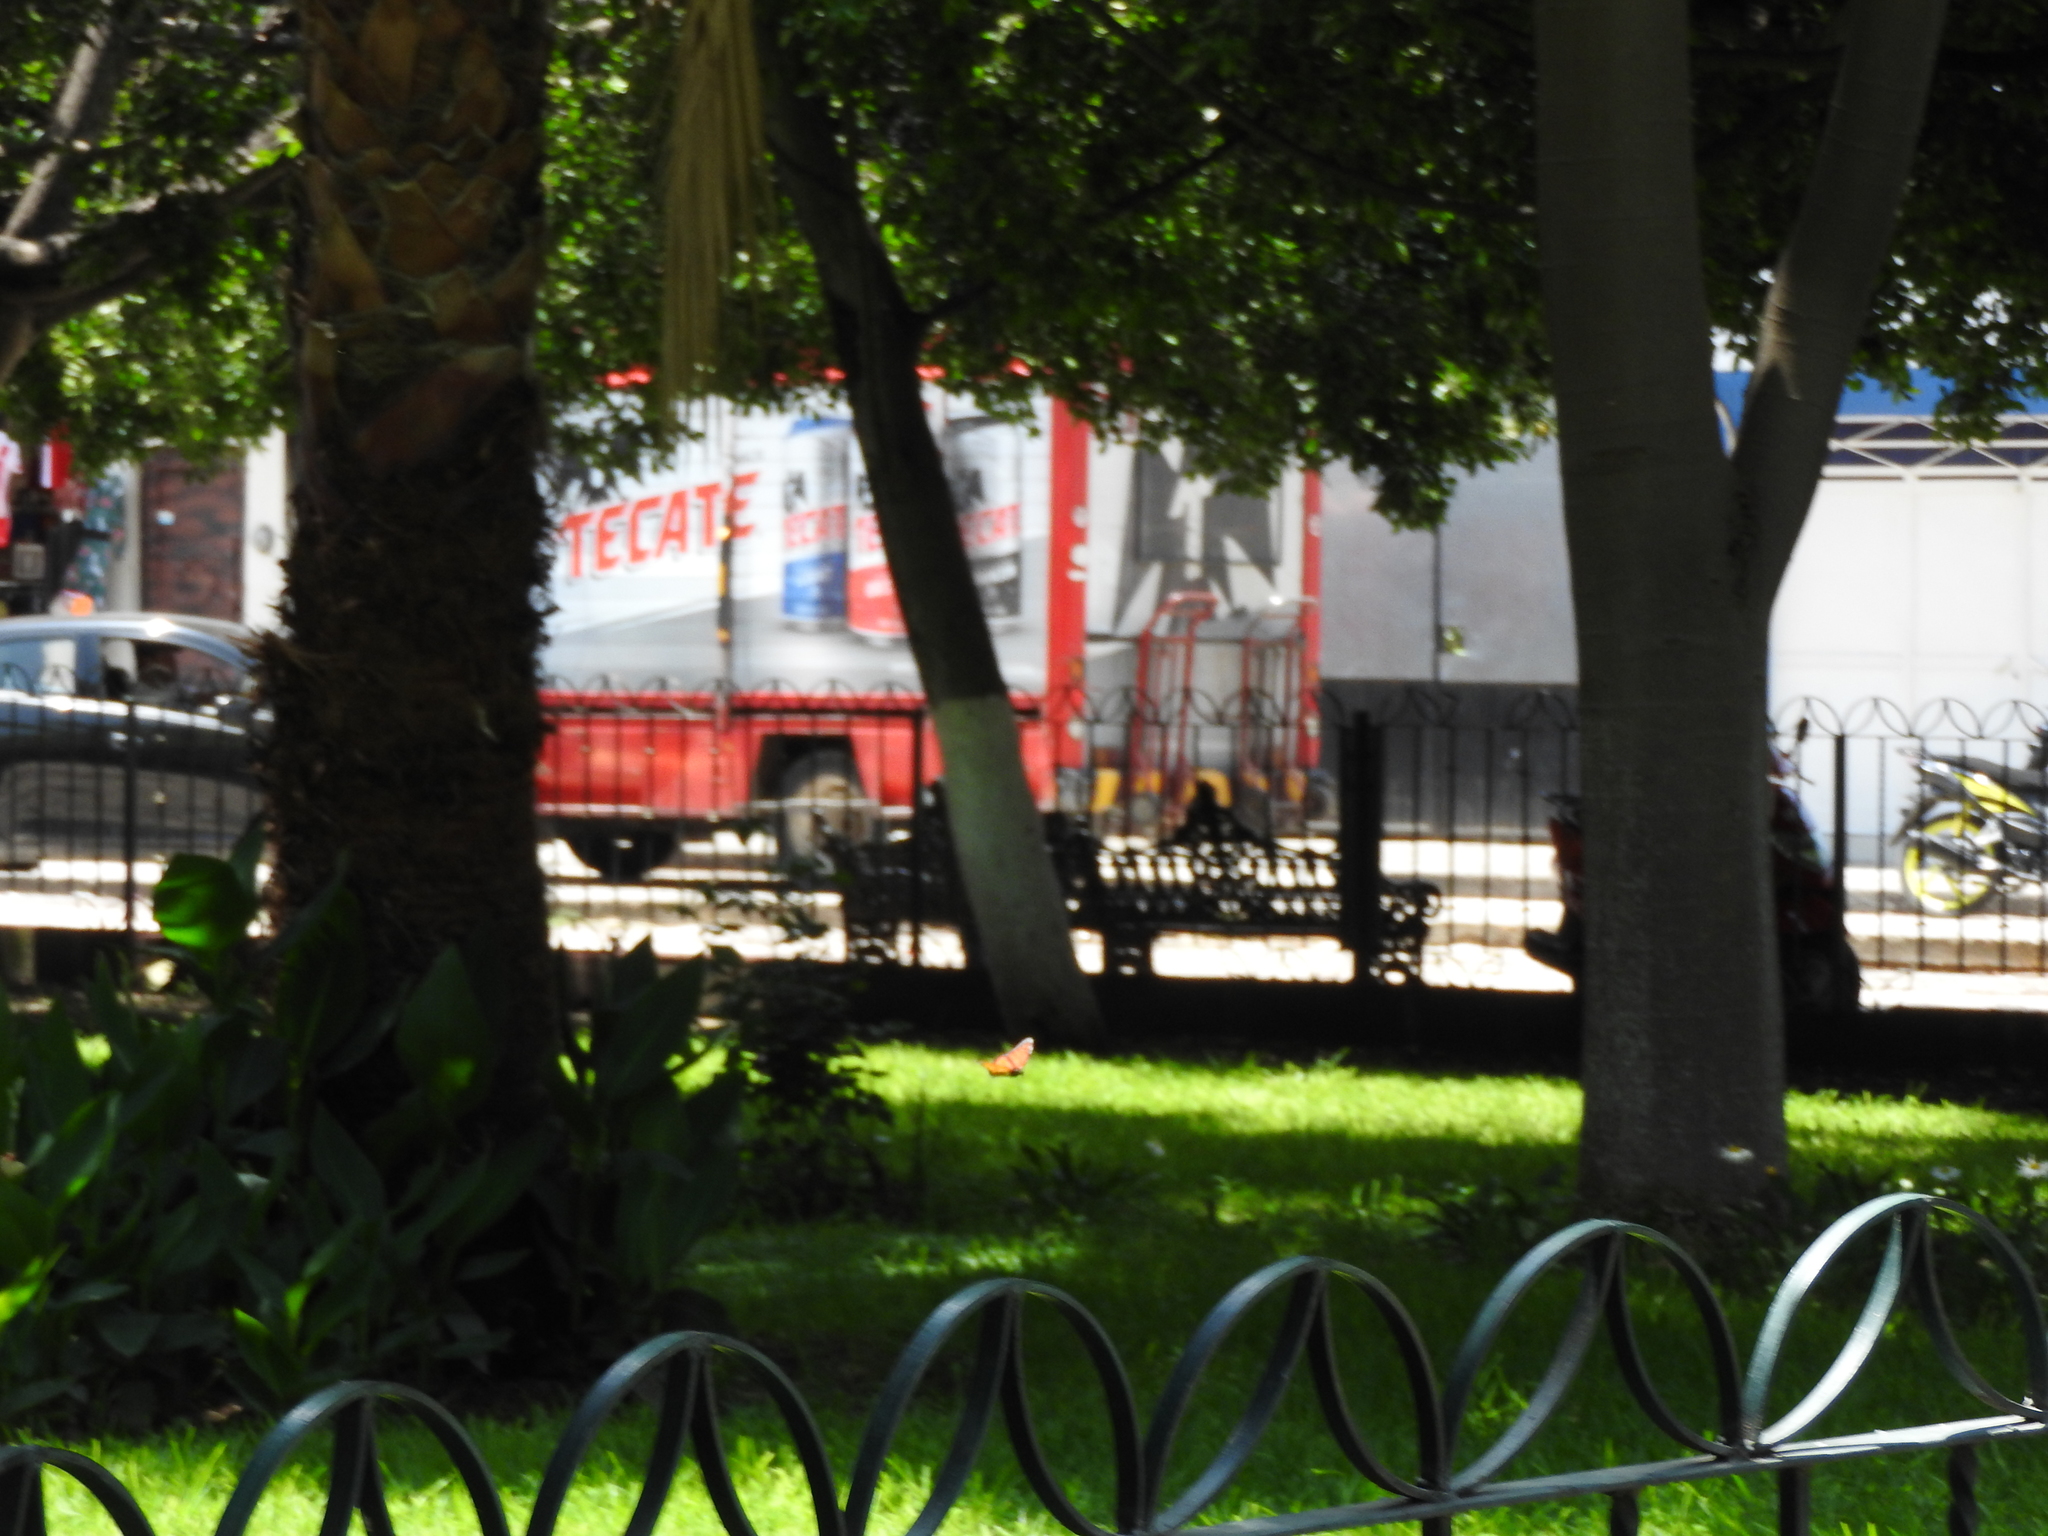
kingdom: Animalia
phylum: Arthropoda
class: Insecta
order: Lepidoptera
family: Nymphalidae
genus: Danaus
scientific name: Danaus plexippus
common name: Monarch
